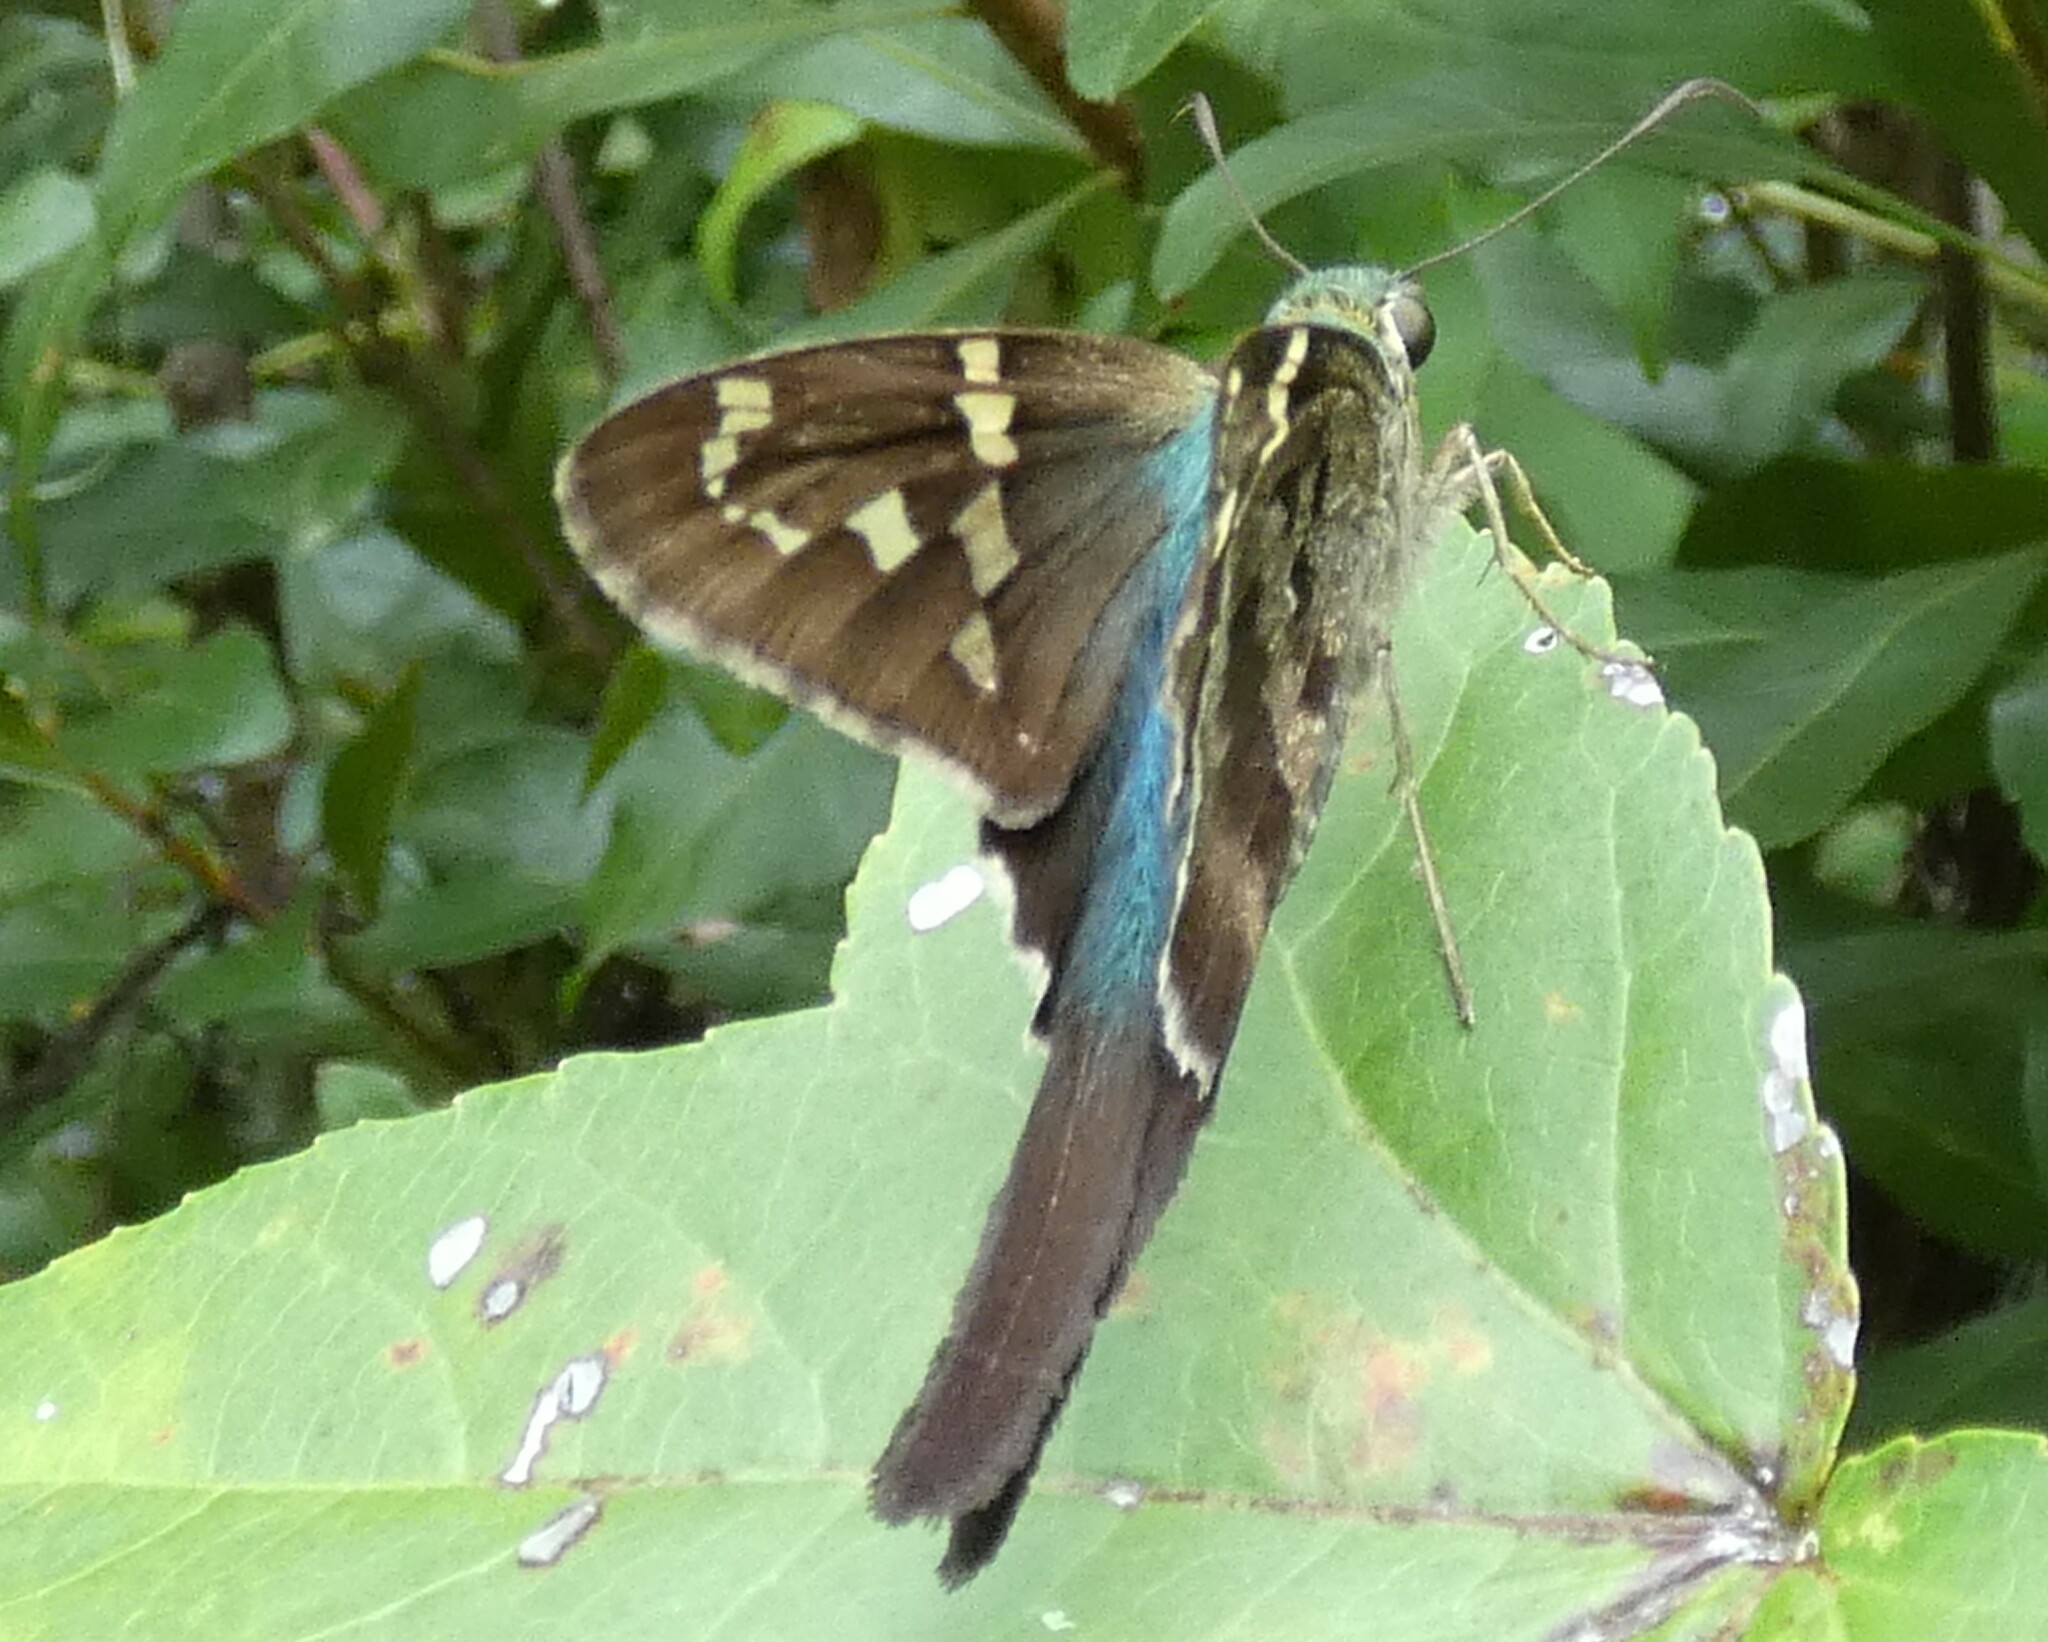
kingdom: Animalia
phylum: Arthropoda
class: Insecta
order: Lepidoptera
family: Hesperiidae
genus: Urbanus
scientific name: Urbanus proteus
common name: Long-tailed skipper
